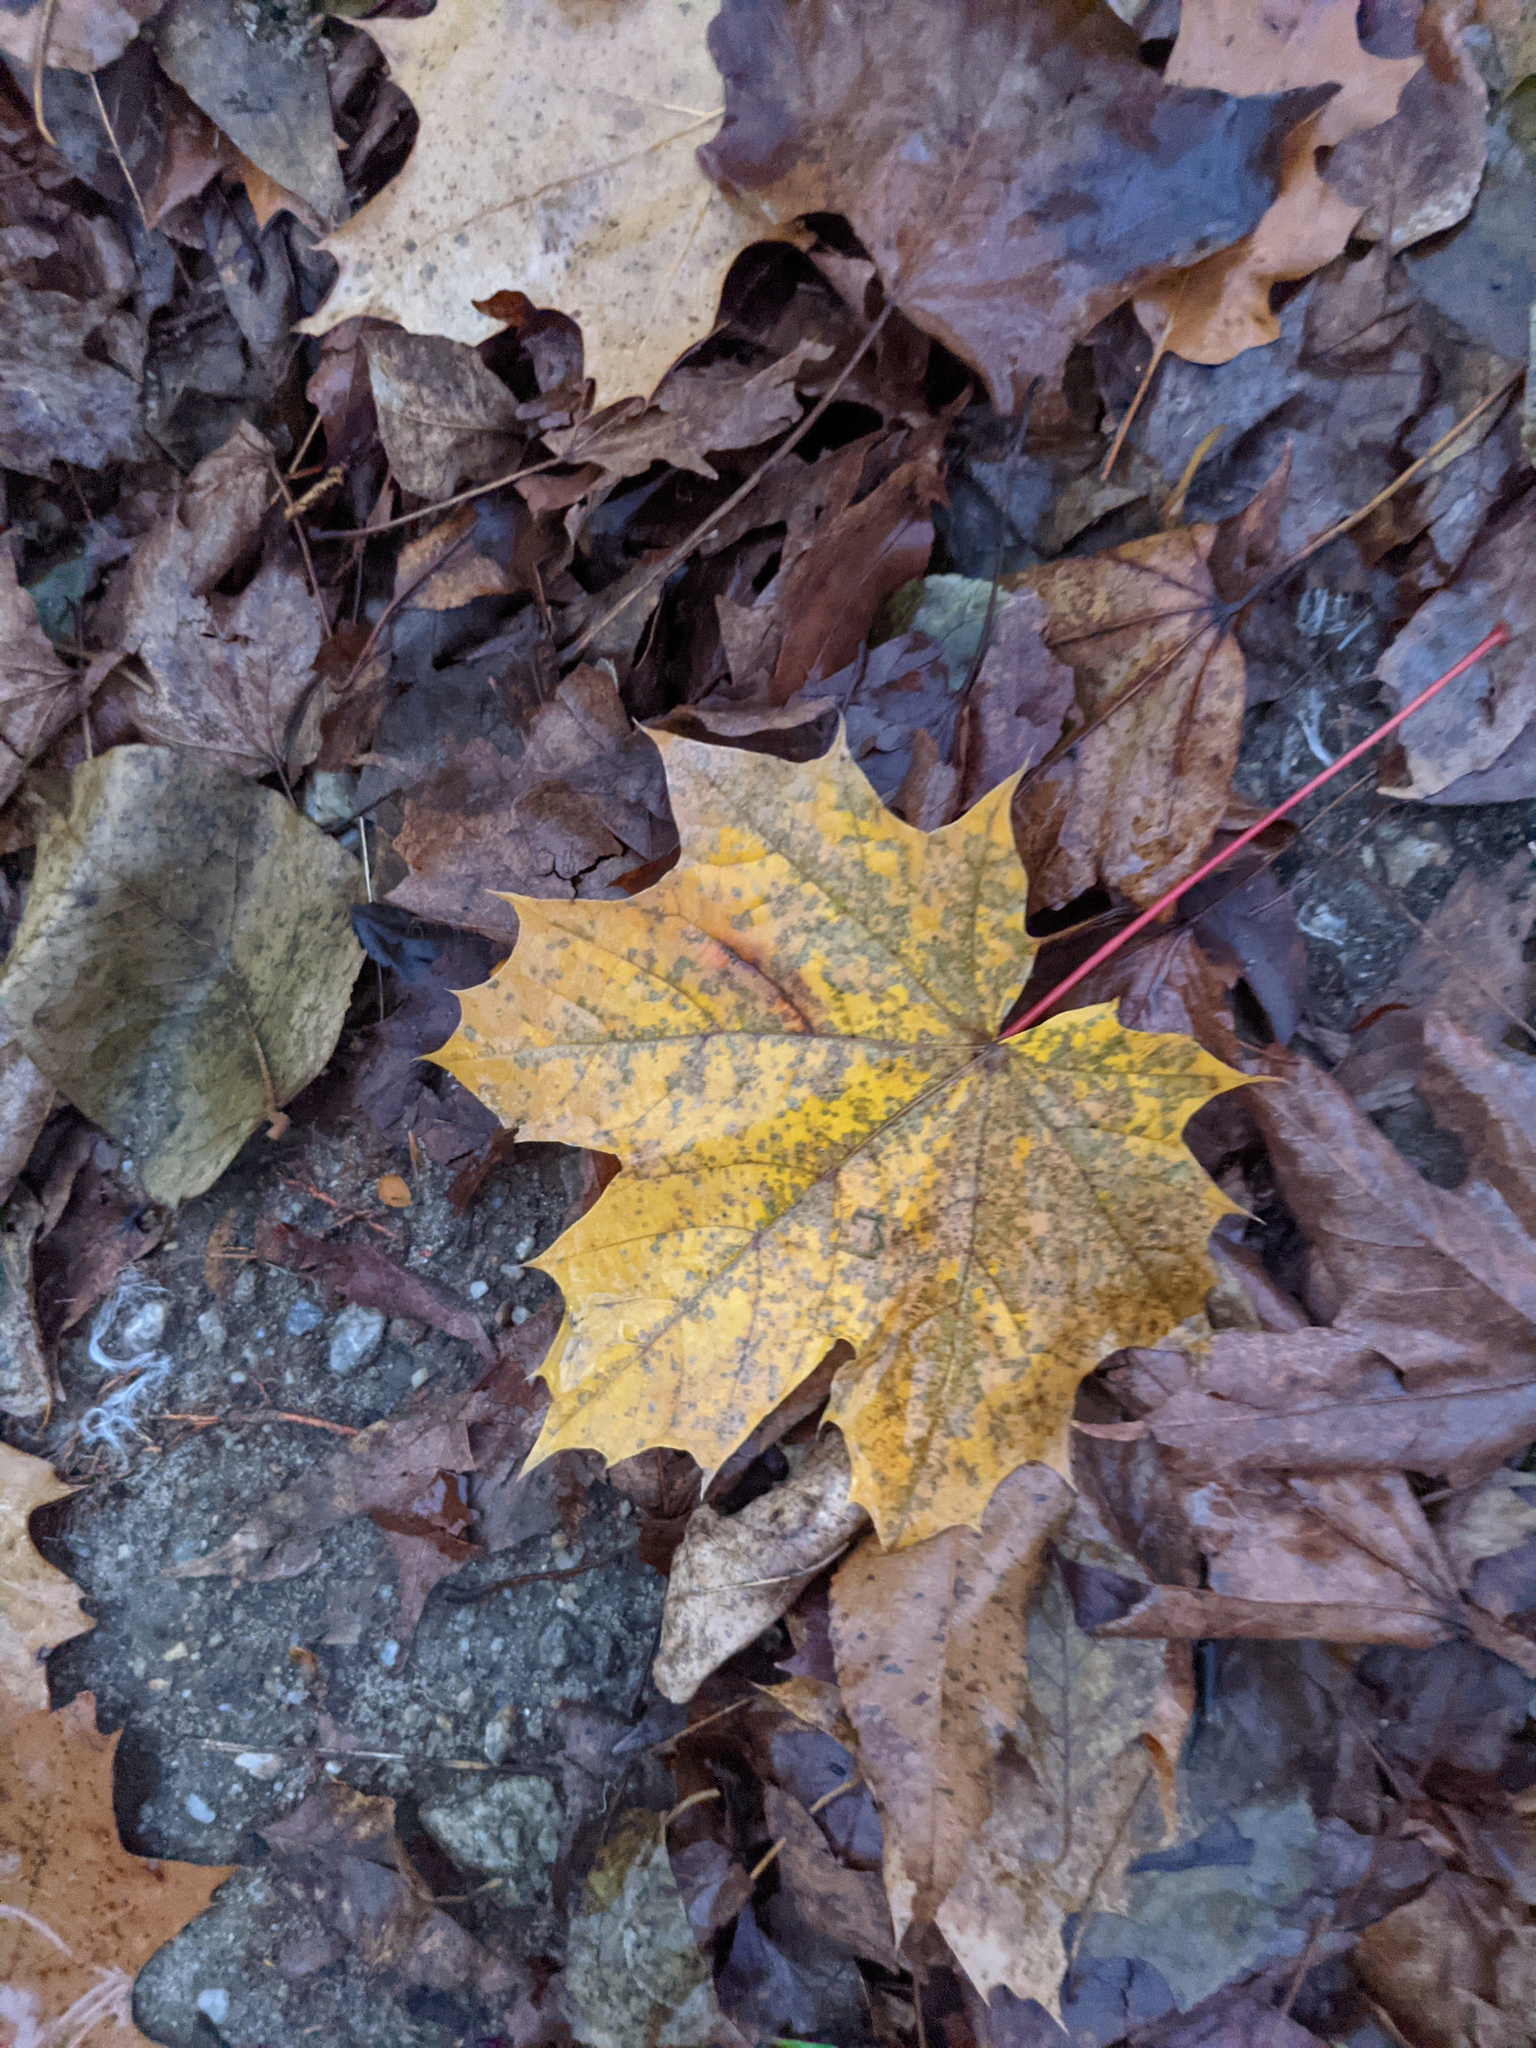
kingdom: Plantae
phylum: Tracheophyta
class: Magnoliopsida
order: Sapindales
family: Sapindaceae
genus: Acer
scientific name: Acer platanoides
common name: Norway maple
